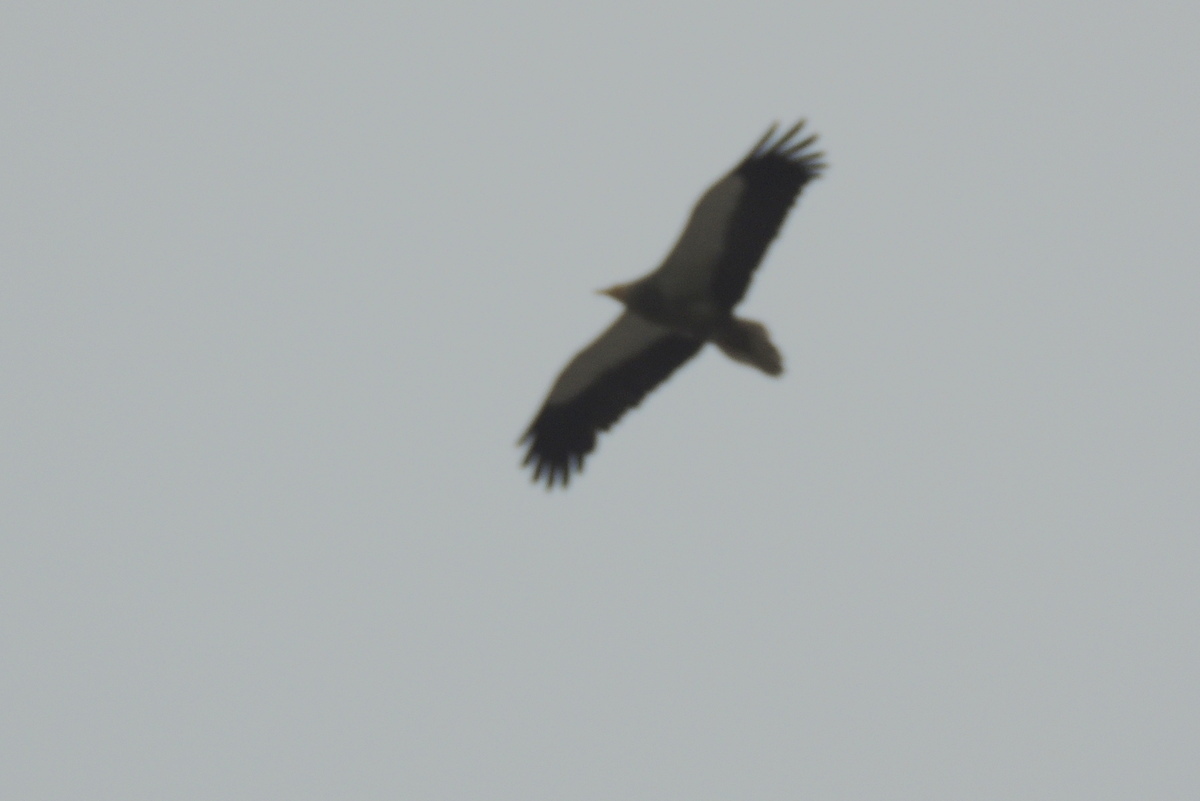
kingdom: Animalia
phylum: Chordata
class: Aves
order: Accipitriformes
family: Accipitridae
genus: Neophron
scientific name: Neophron percnopterus
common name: Egyptian vulture
